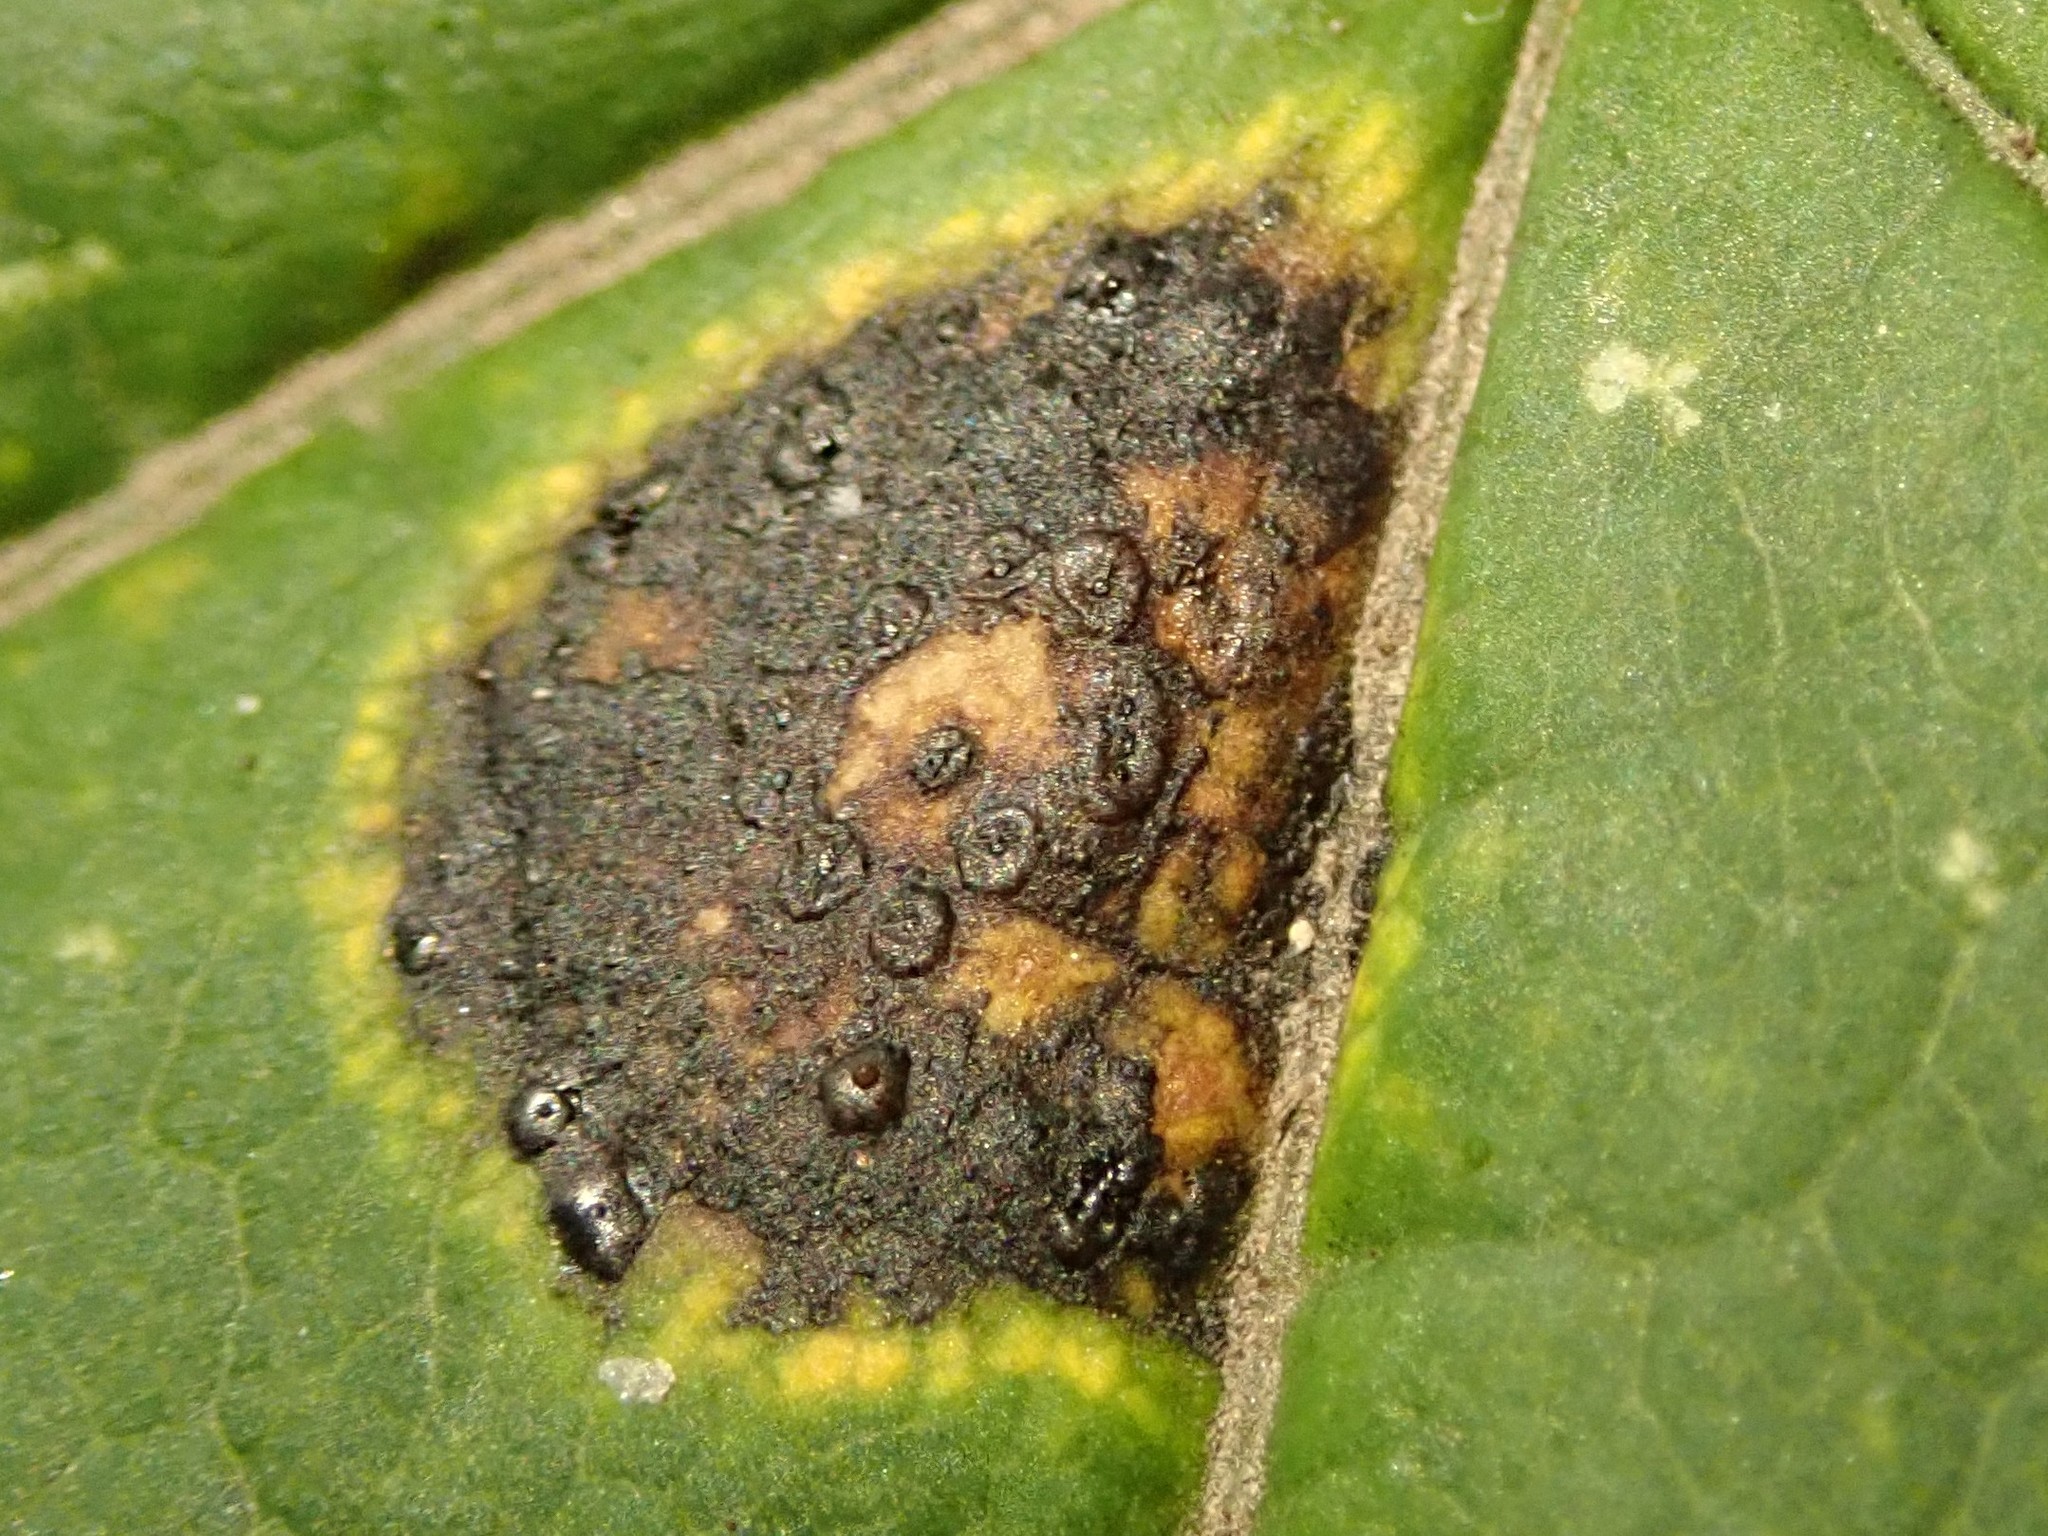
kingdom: Fungi
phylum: Ascomycota
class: Leotiomycetes
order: Rhytismatales
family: Rhytismataceae
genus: Rhytisma
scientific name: Rhytisma acerinum
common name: European tar spot
